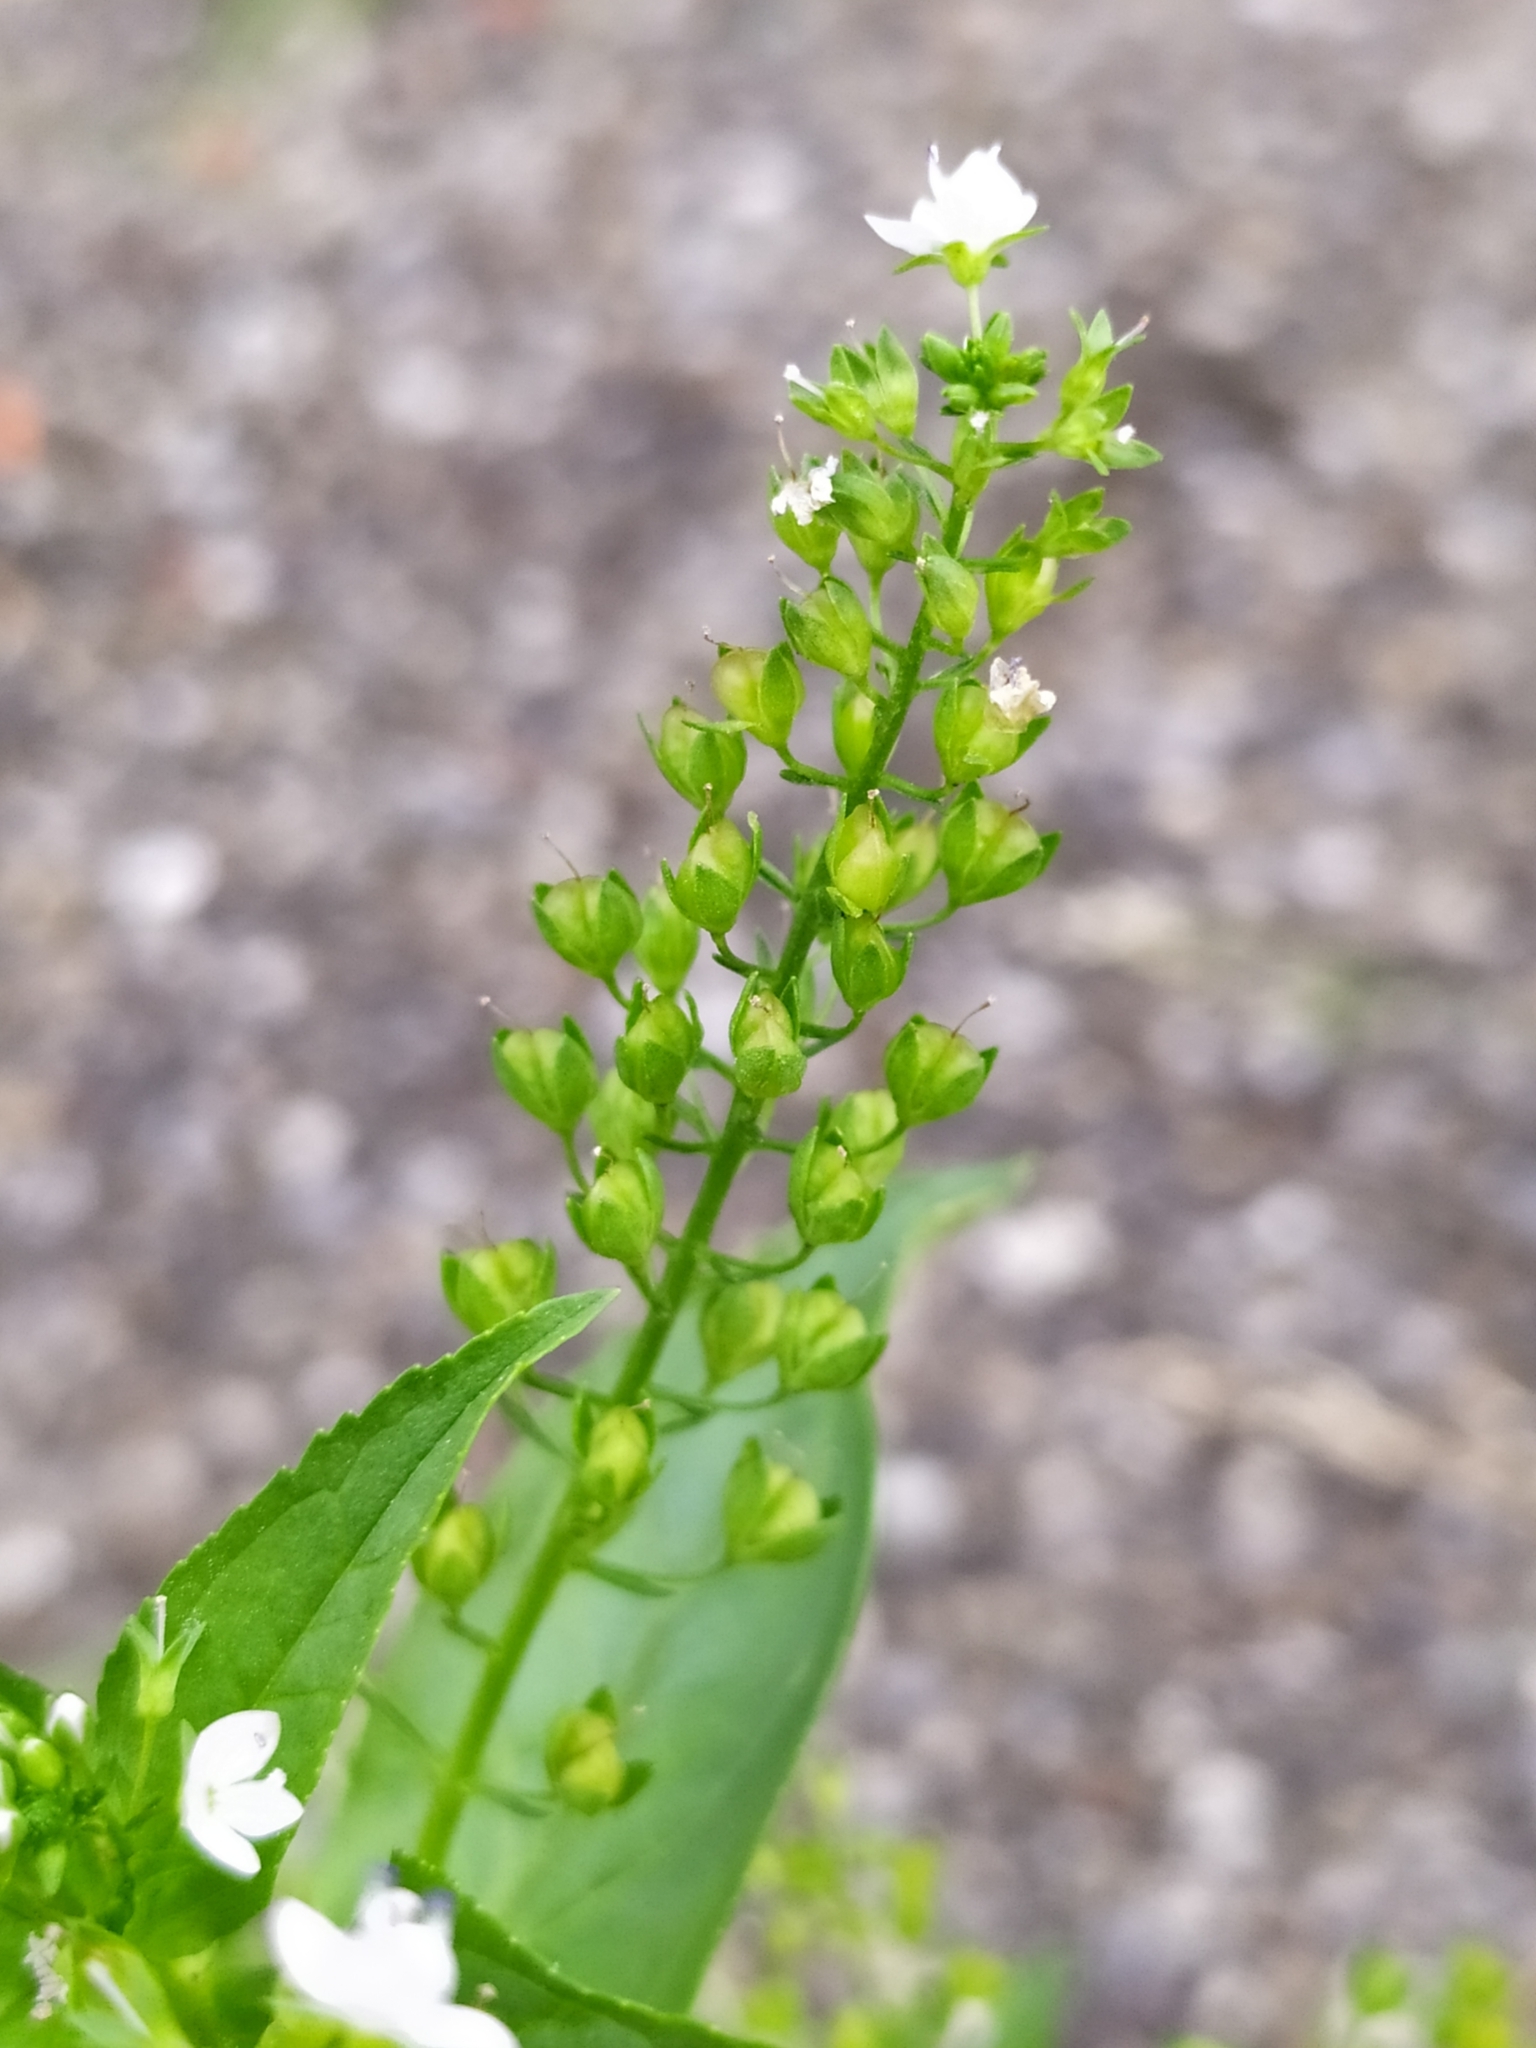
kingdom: Plantae
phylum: Tracheophyta
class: Magnoliopsida
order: Lamiales
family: Plantaginaceae
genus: Veronica
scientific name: Veronica anagallis-aquatica
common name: Water speedwell
